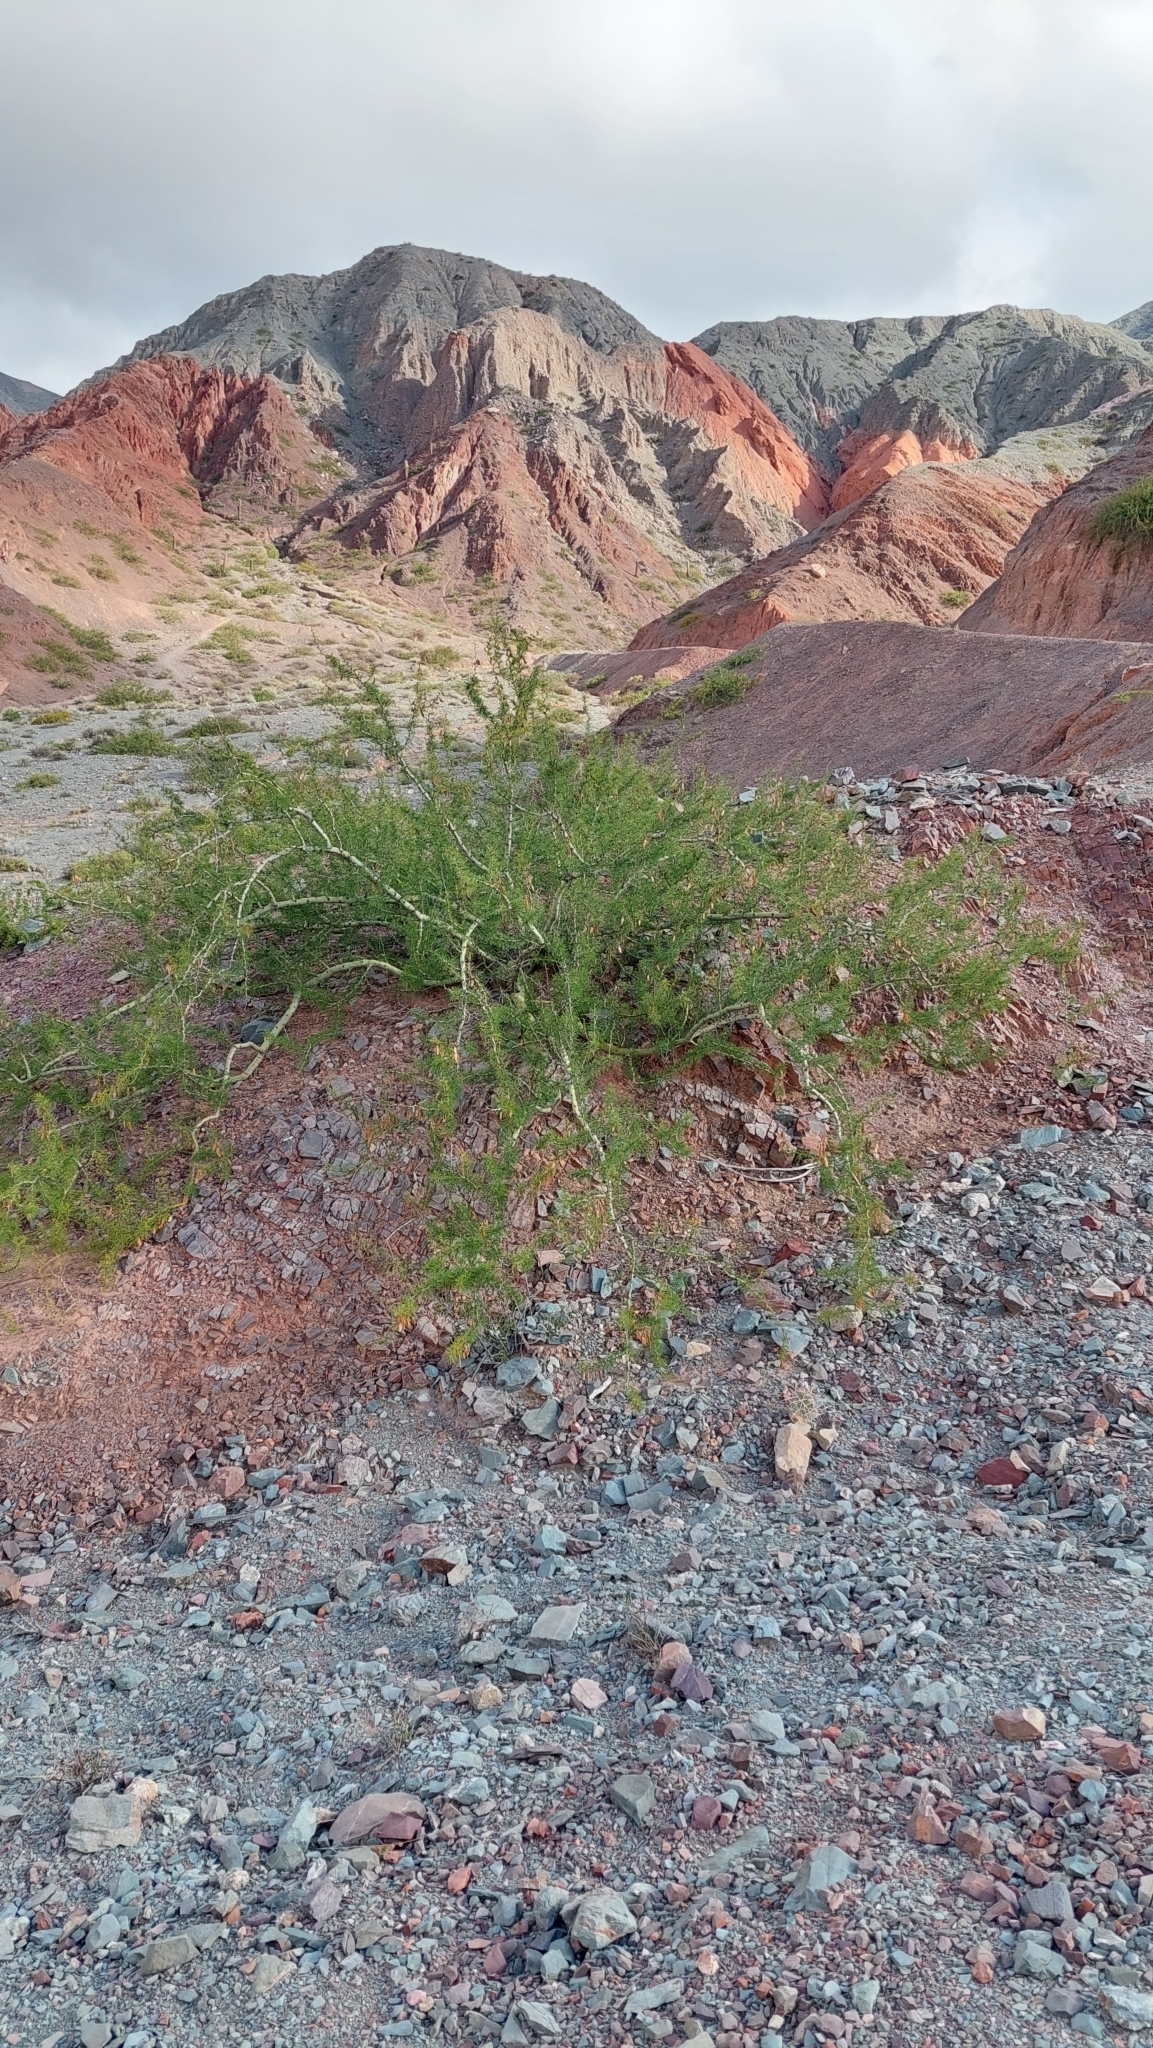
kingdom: Plantae
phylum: Tracheophyta
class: Magnoliopsida
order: Fabales
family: Fabaceae
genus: Parkinsonia
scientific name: Parkinsonia andicola
